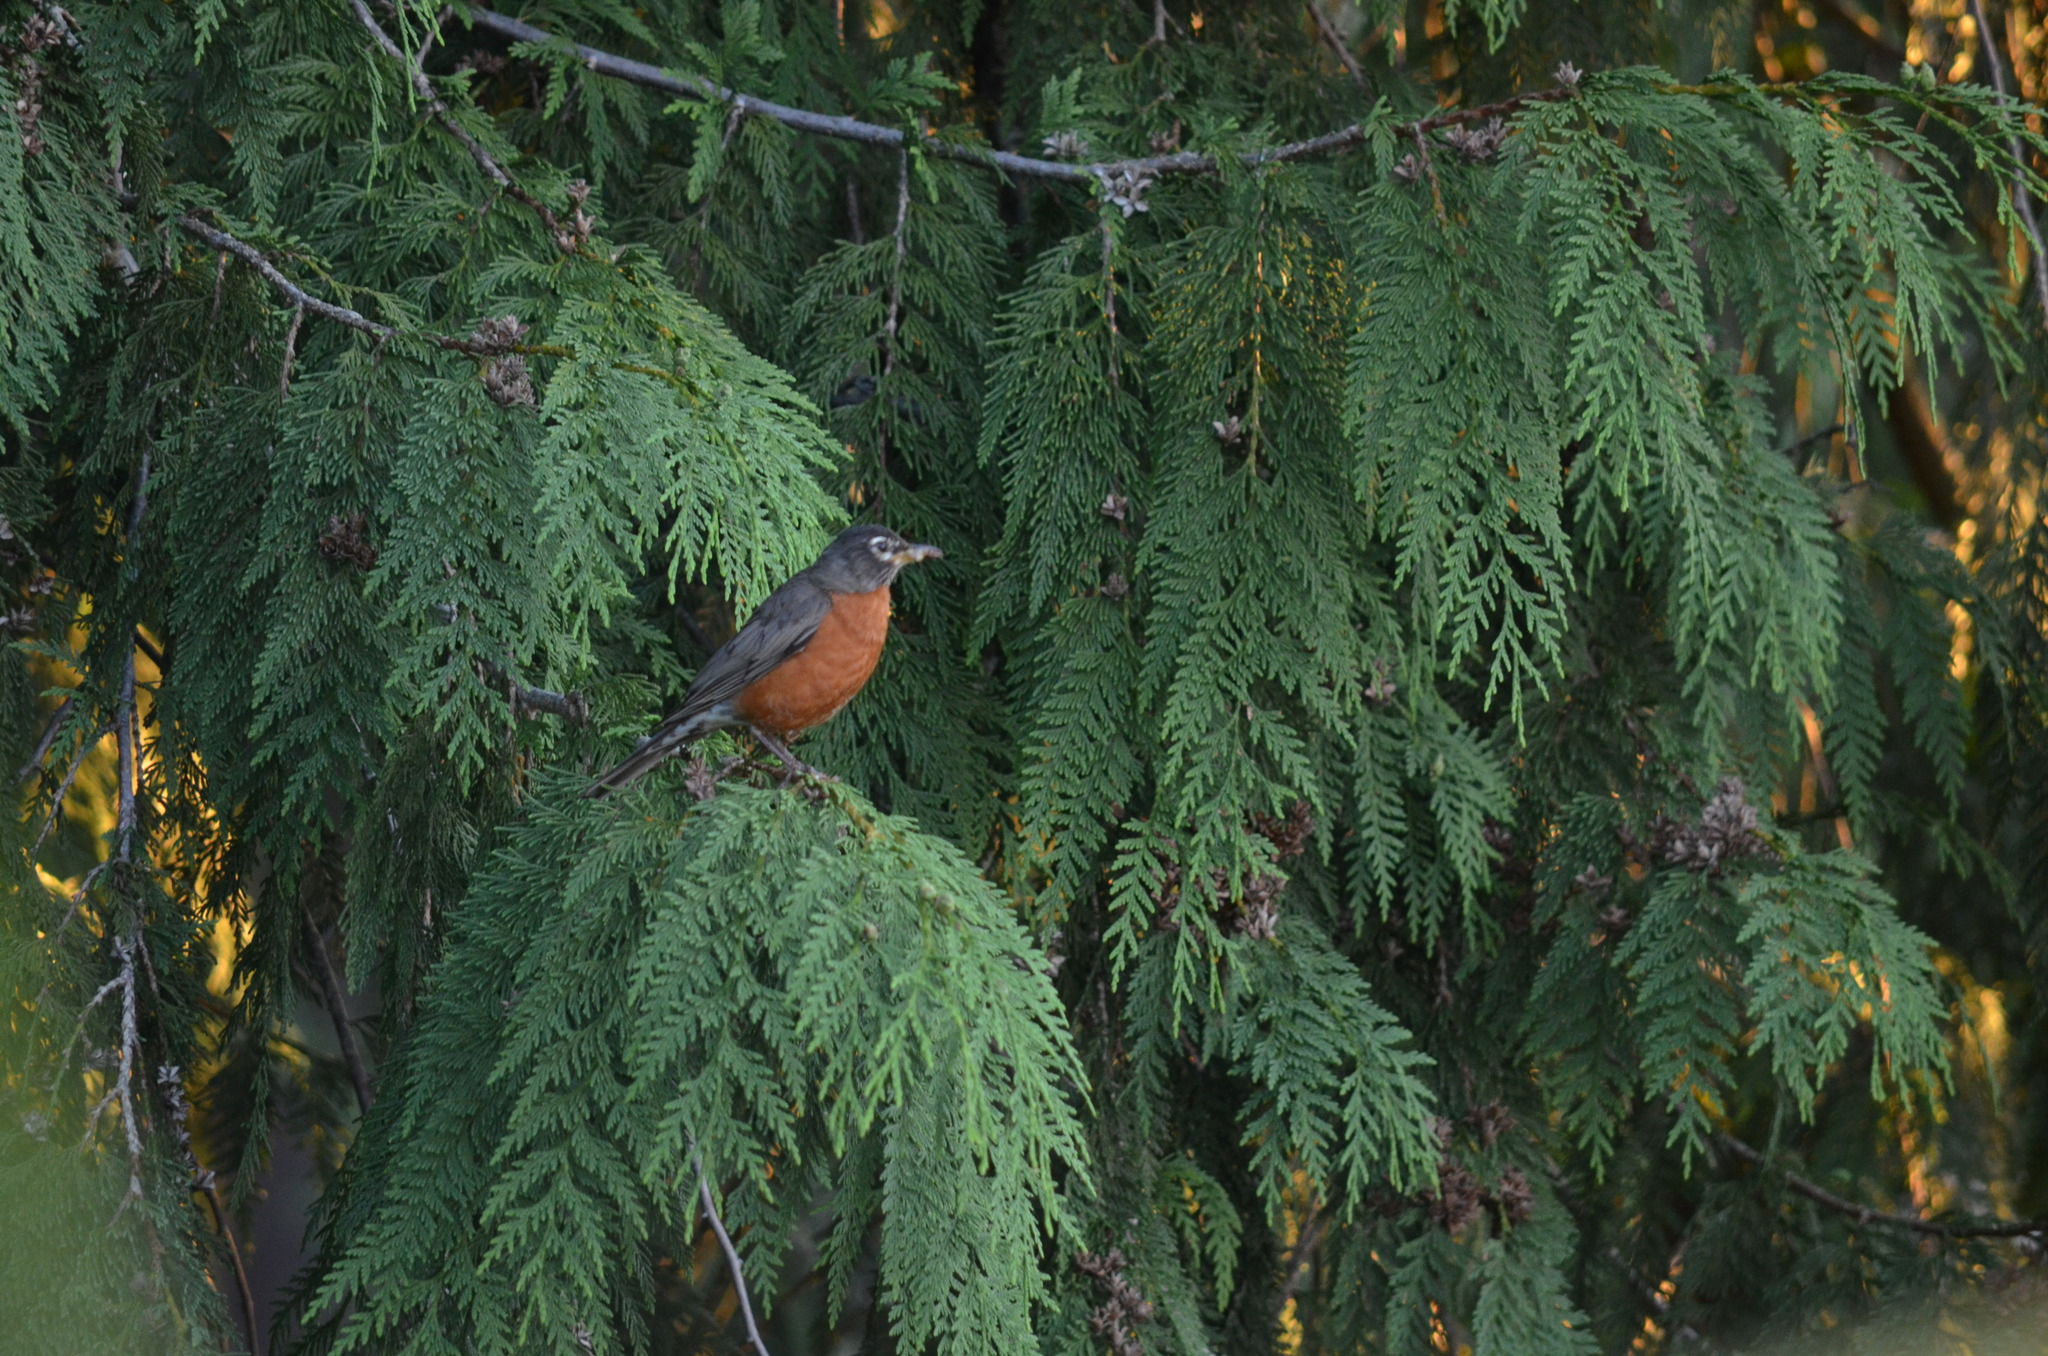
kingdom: Animalia
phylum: Chordata
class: Aves
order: Passeriformes
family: Turdidae
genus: Turdus
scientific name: Turdus migratorius
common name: American robin
